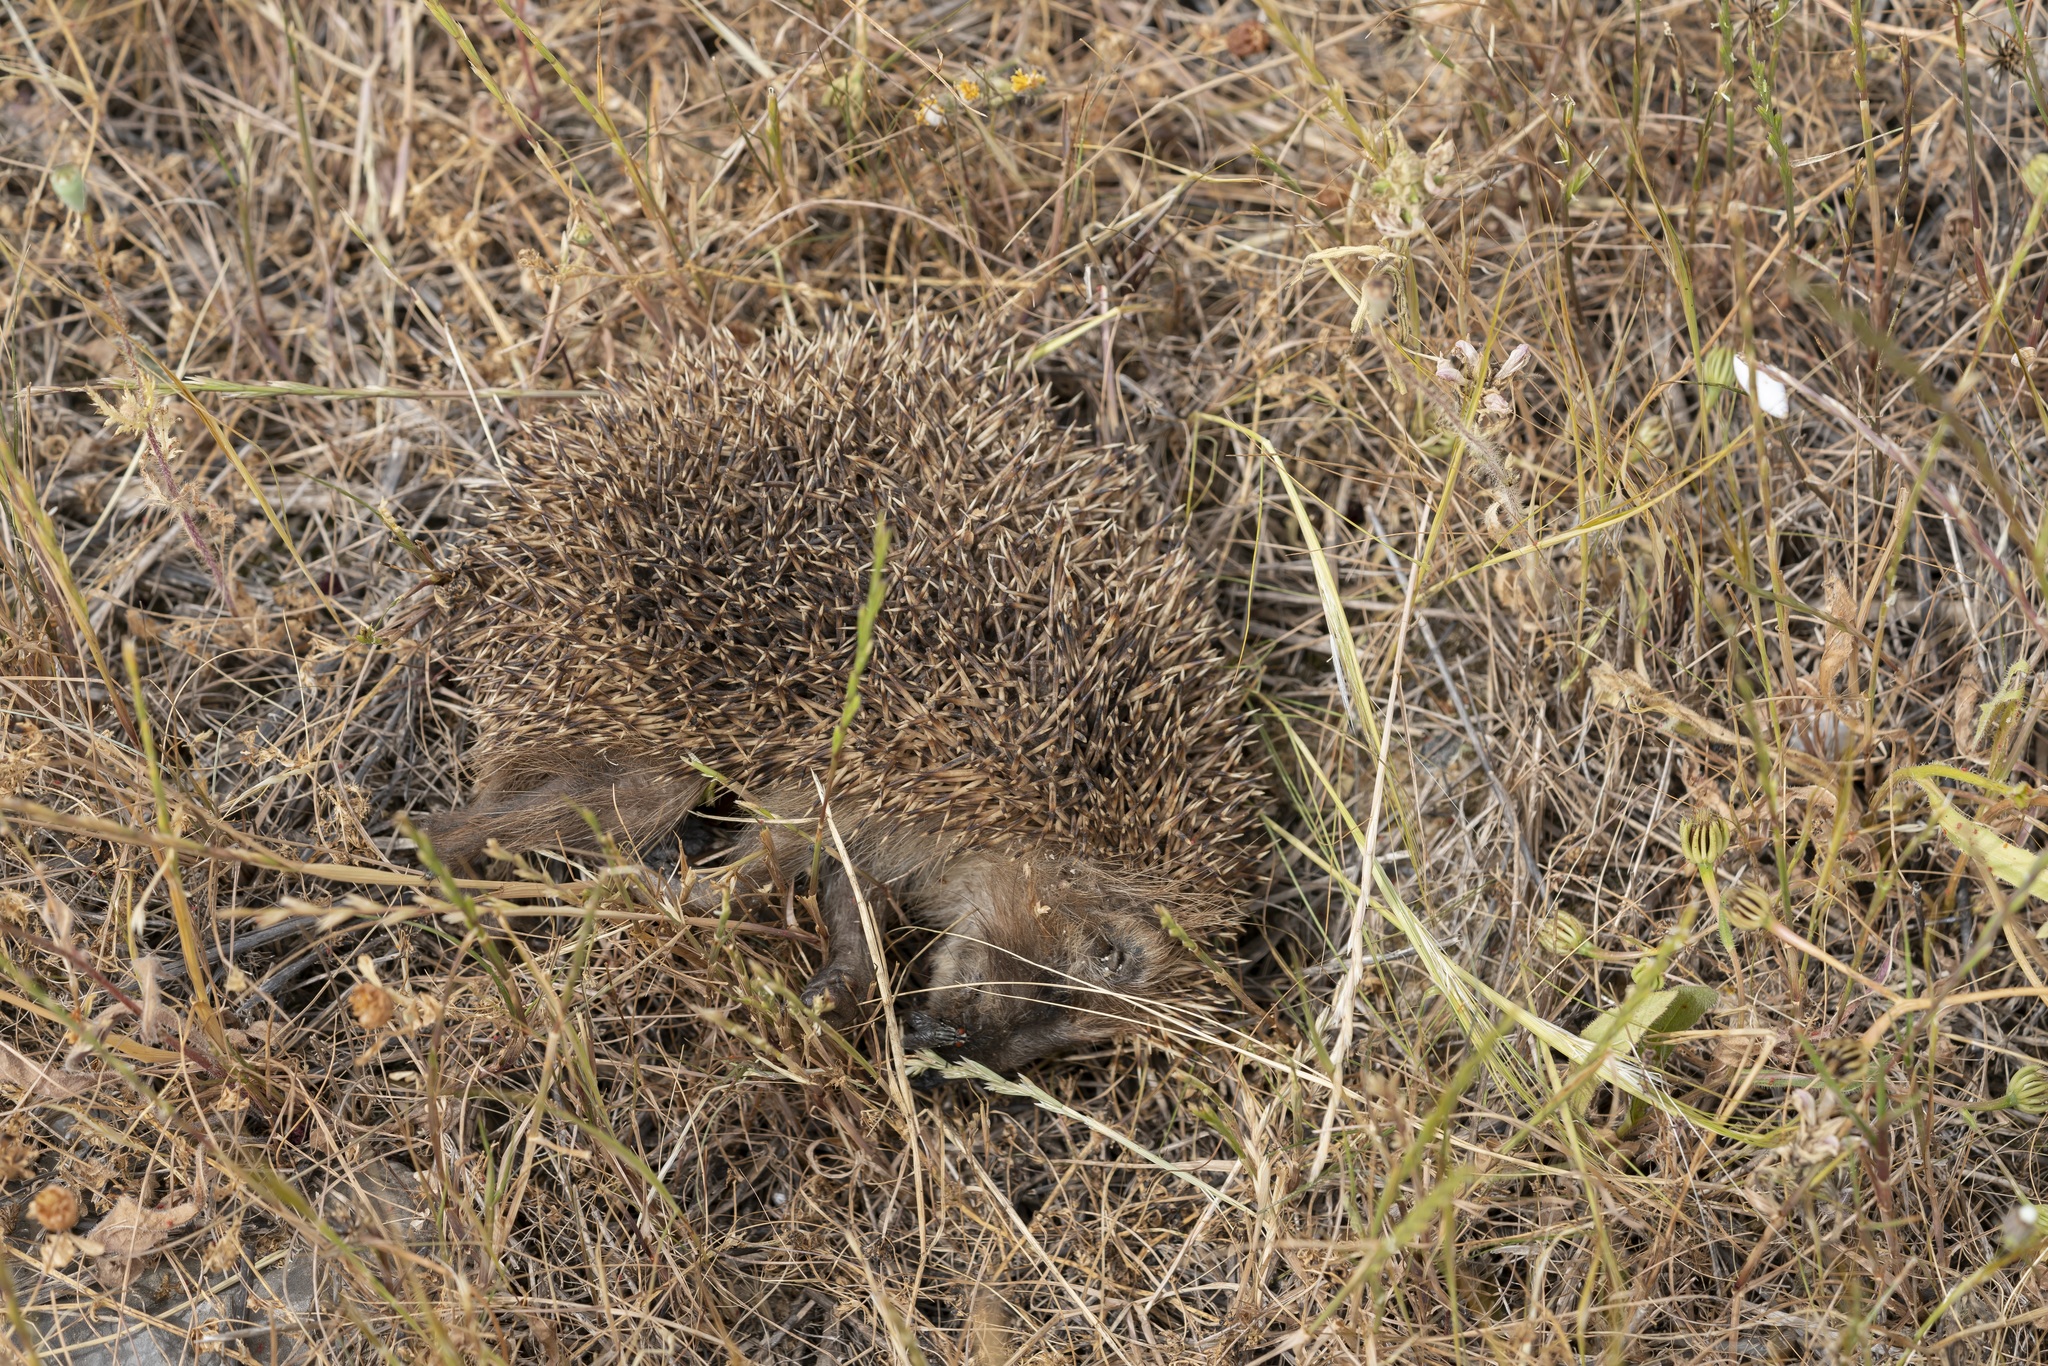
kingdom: Animalia
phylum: Chordata
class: Mammalia
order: Erinaceomorpha
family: Erinaceidae
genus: Erinaceus
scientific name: Erinaceus concolor
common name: Southern white-breasted hedgehog
